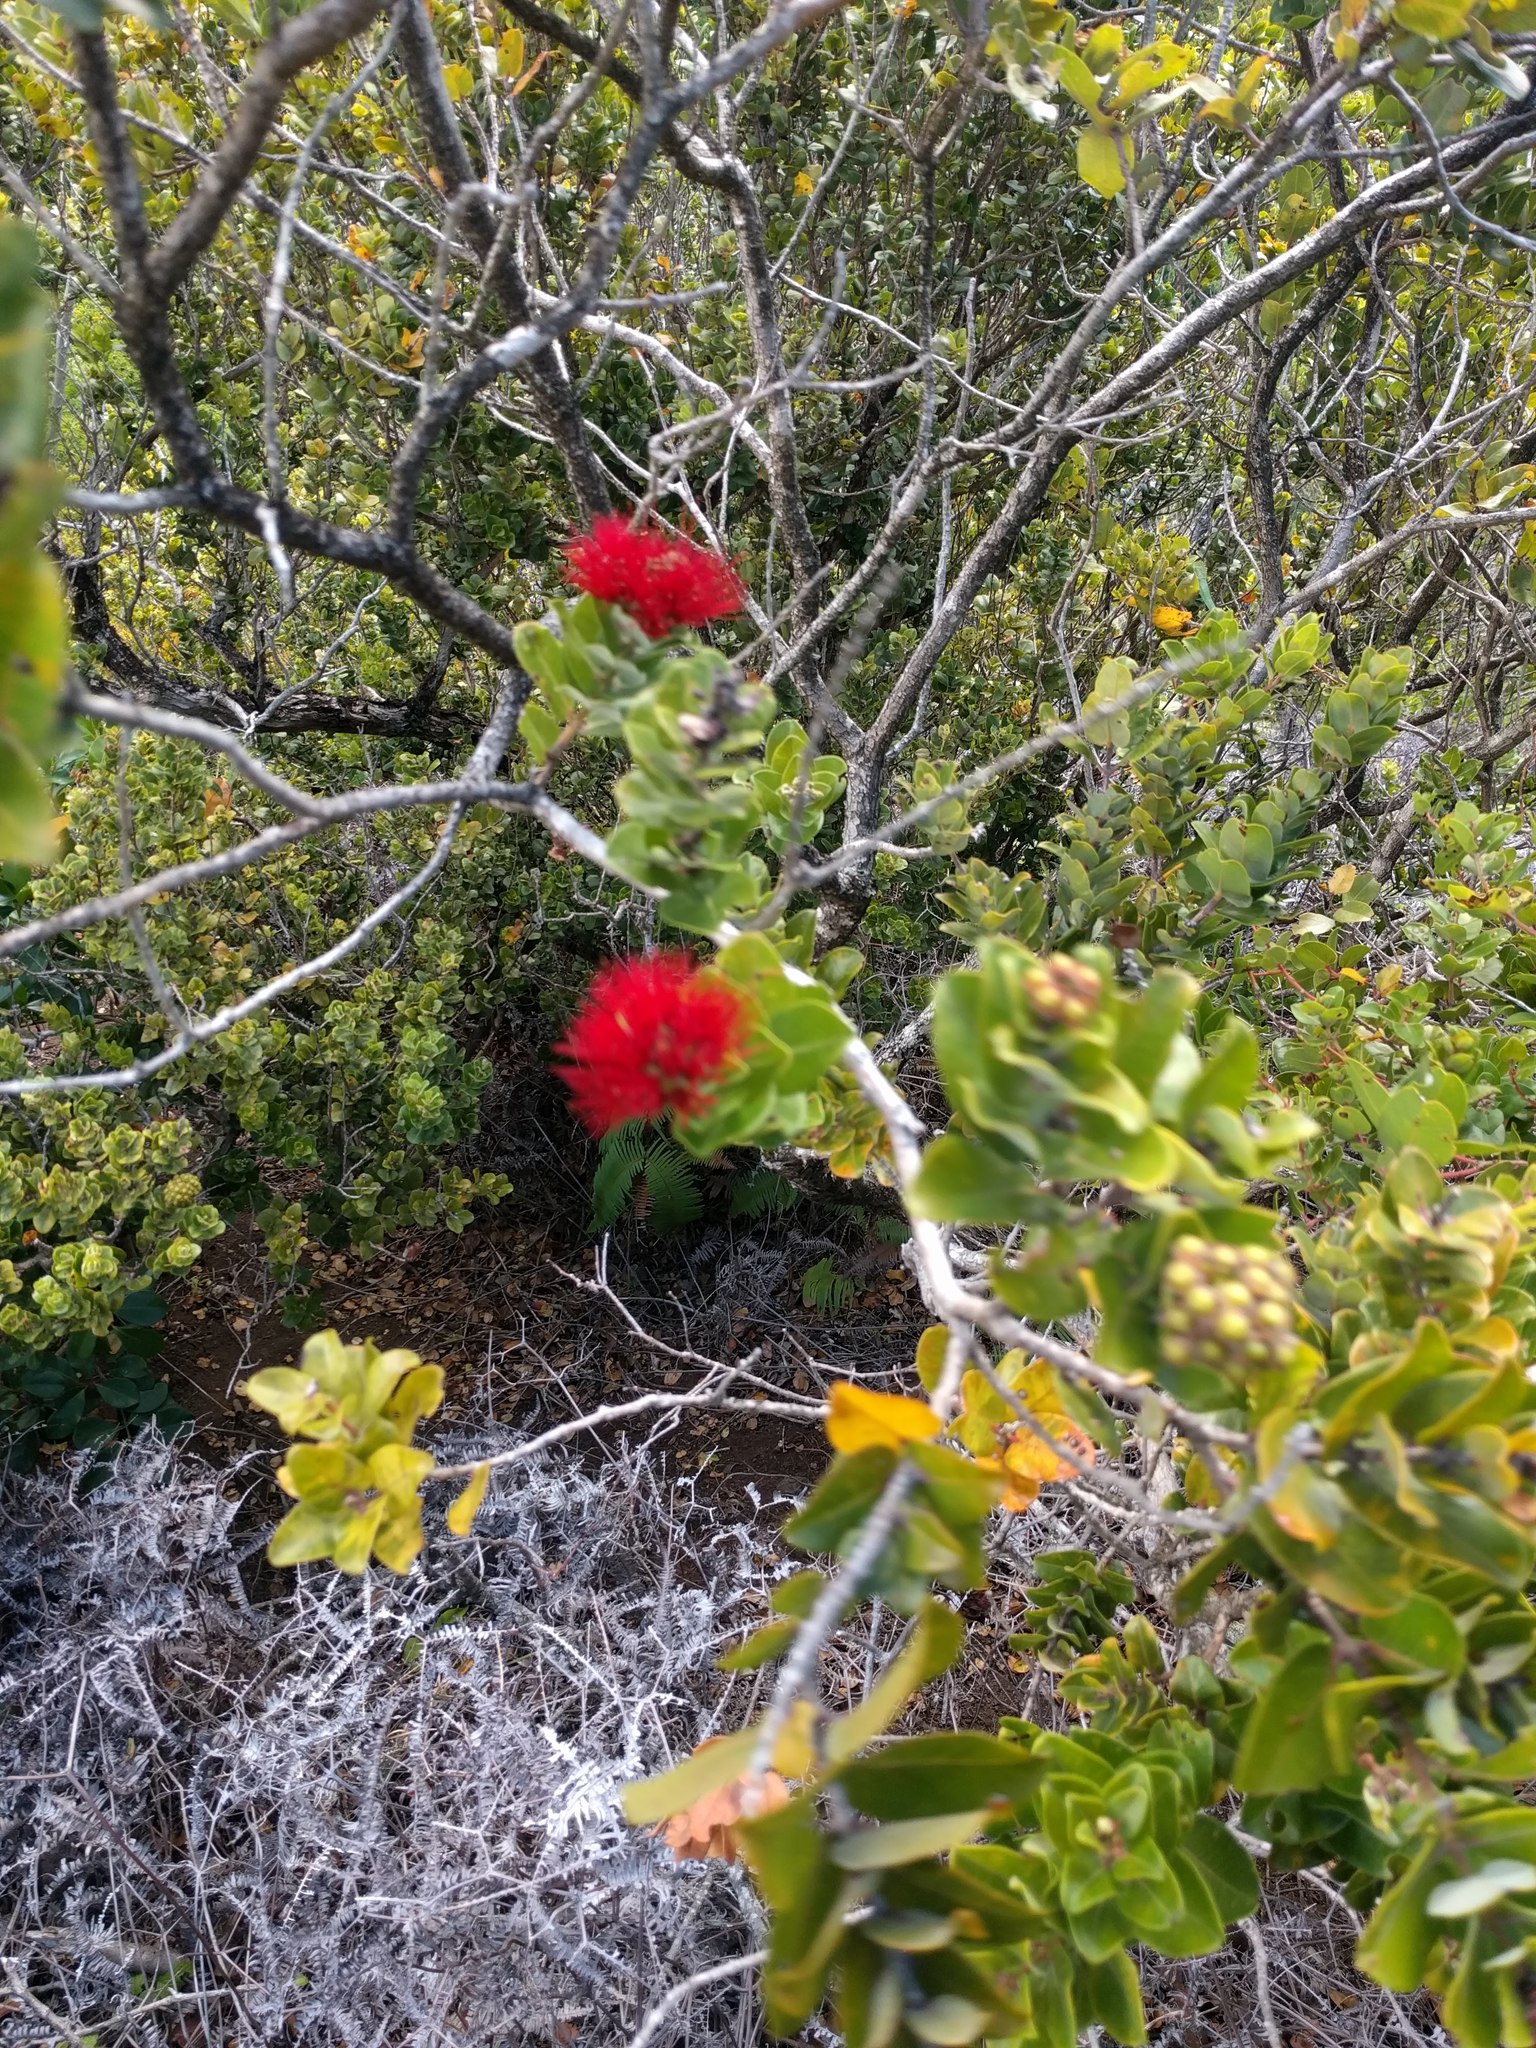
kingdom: Plantae
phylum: Tracheophyta
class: Magnoliopsida
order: Myrtales
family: Myrtaceae
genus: Metrosideros
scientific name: Metrosideros polymorpha
